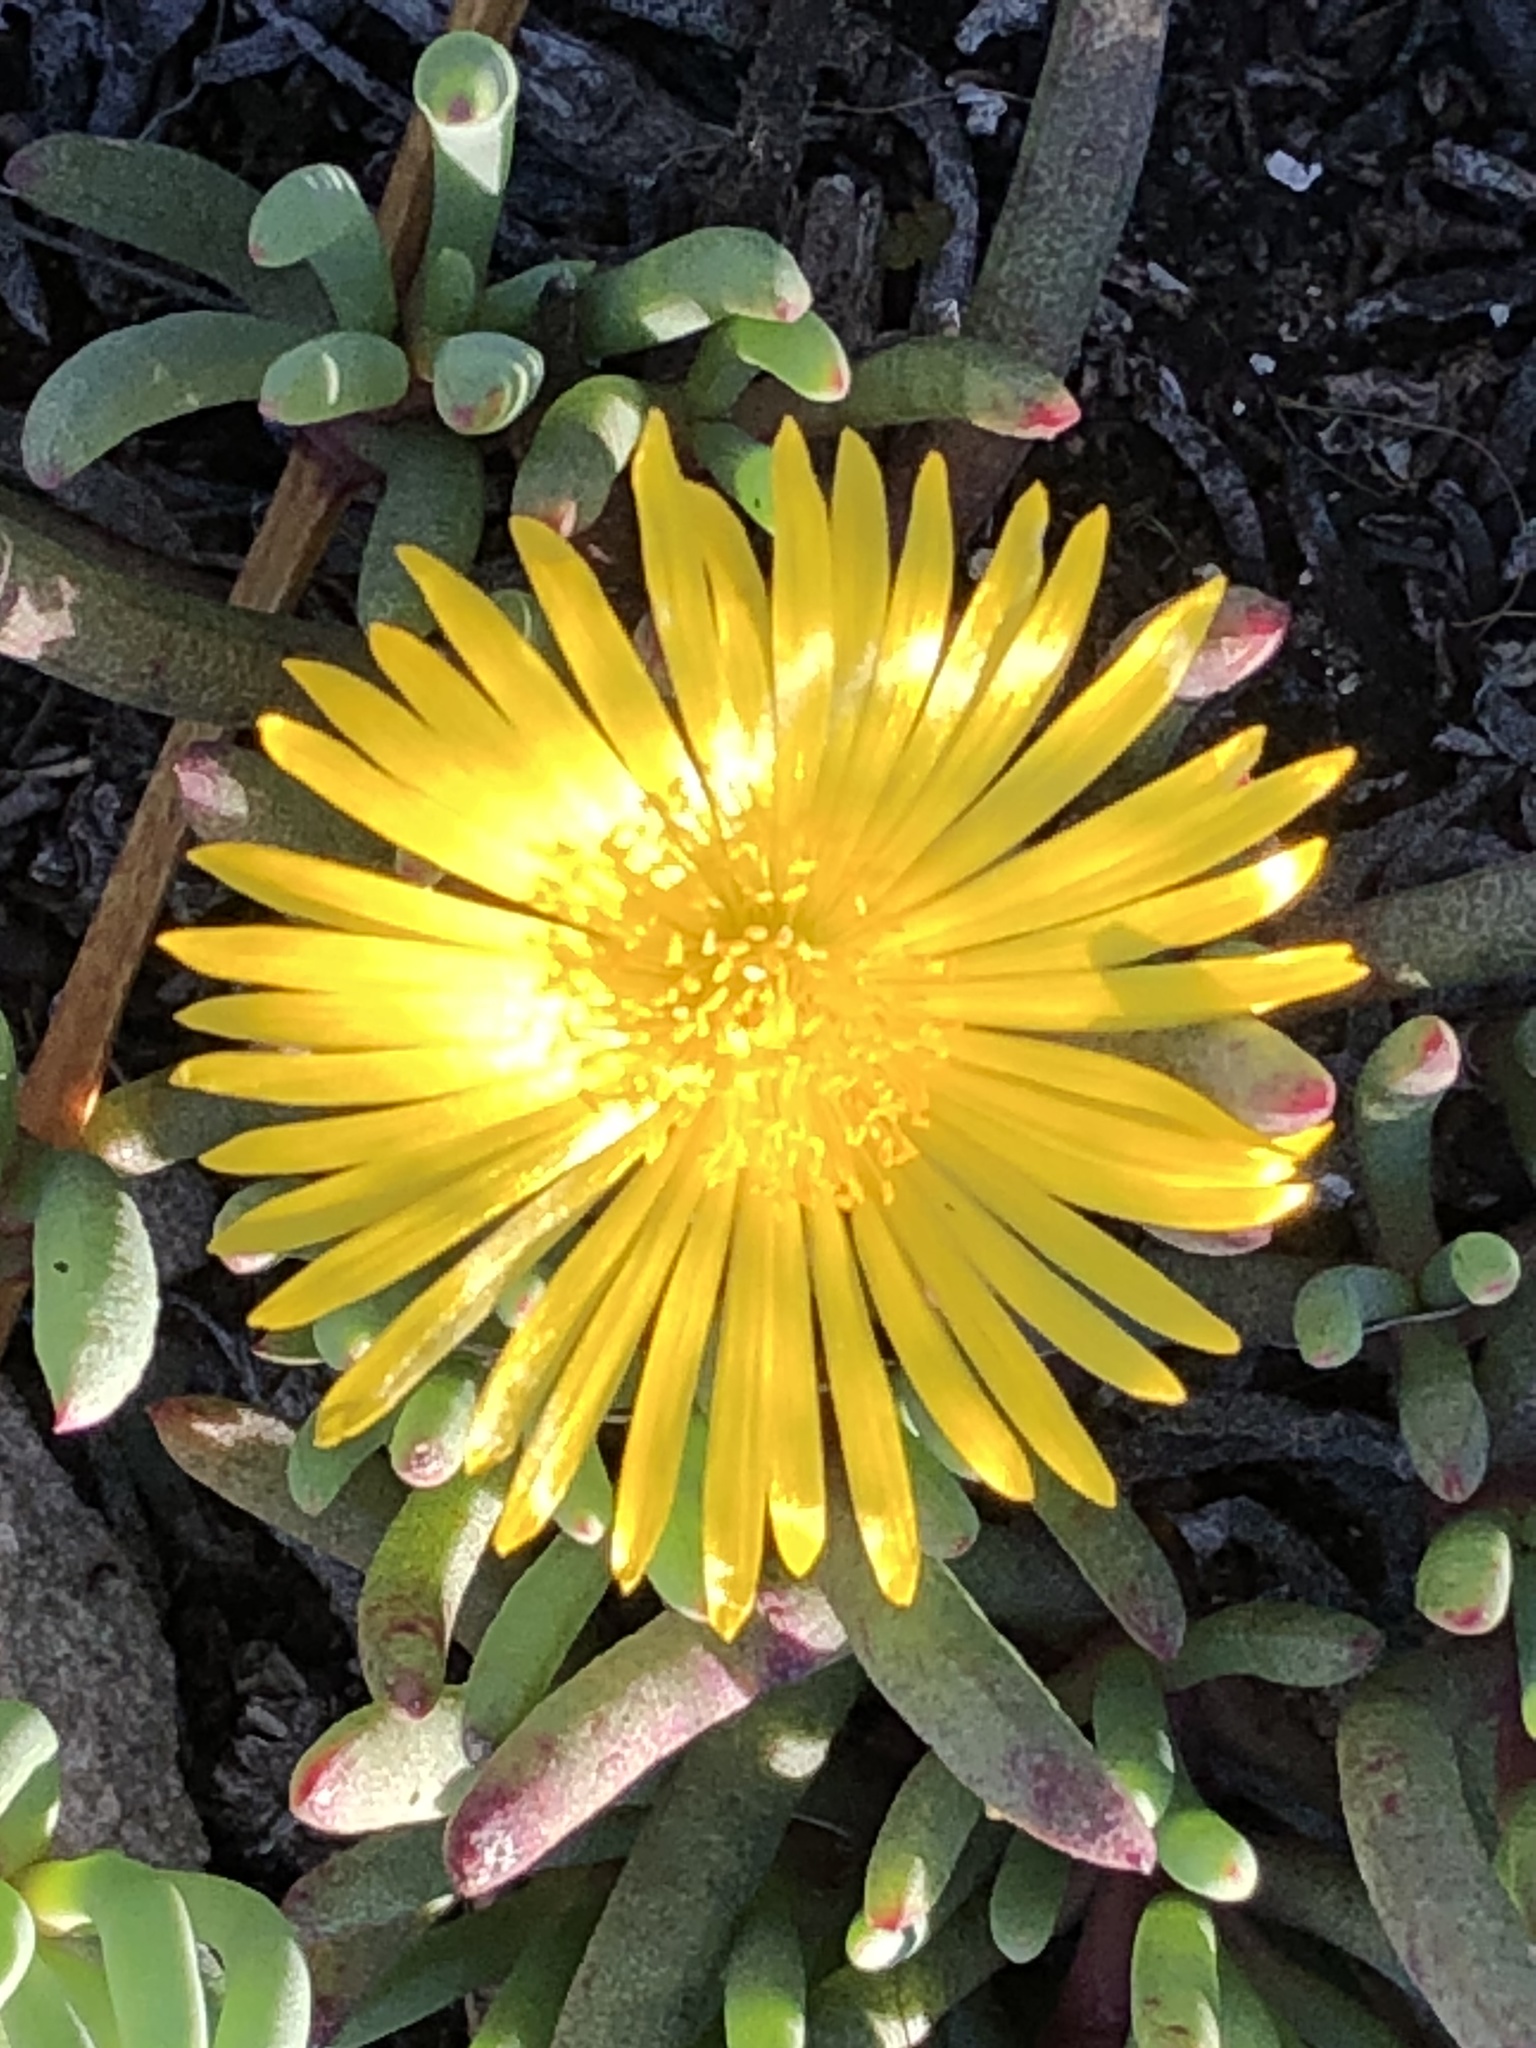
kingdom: Plantae
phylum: Tracheophyta
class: Magnoliopsida
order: Caryophyllales
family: Aizoaceae
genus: Jordaaniella
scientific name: Jordaaniella dubia
